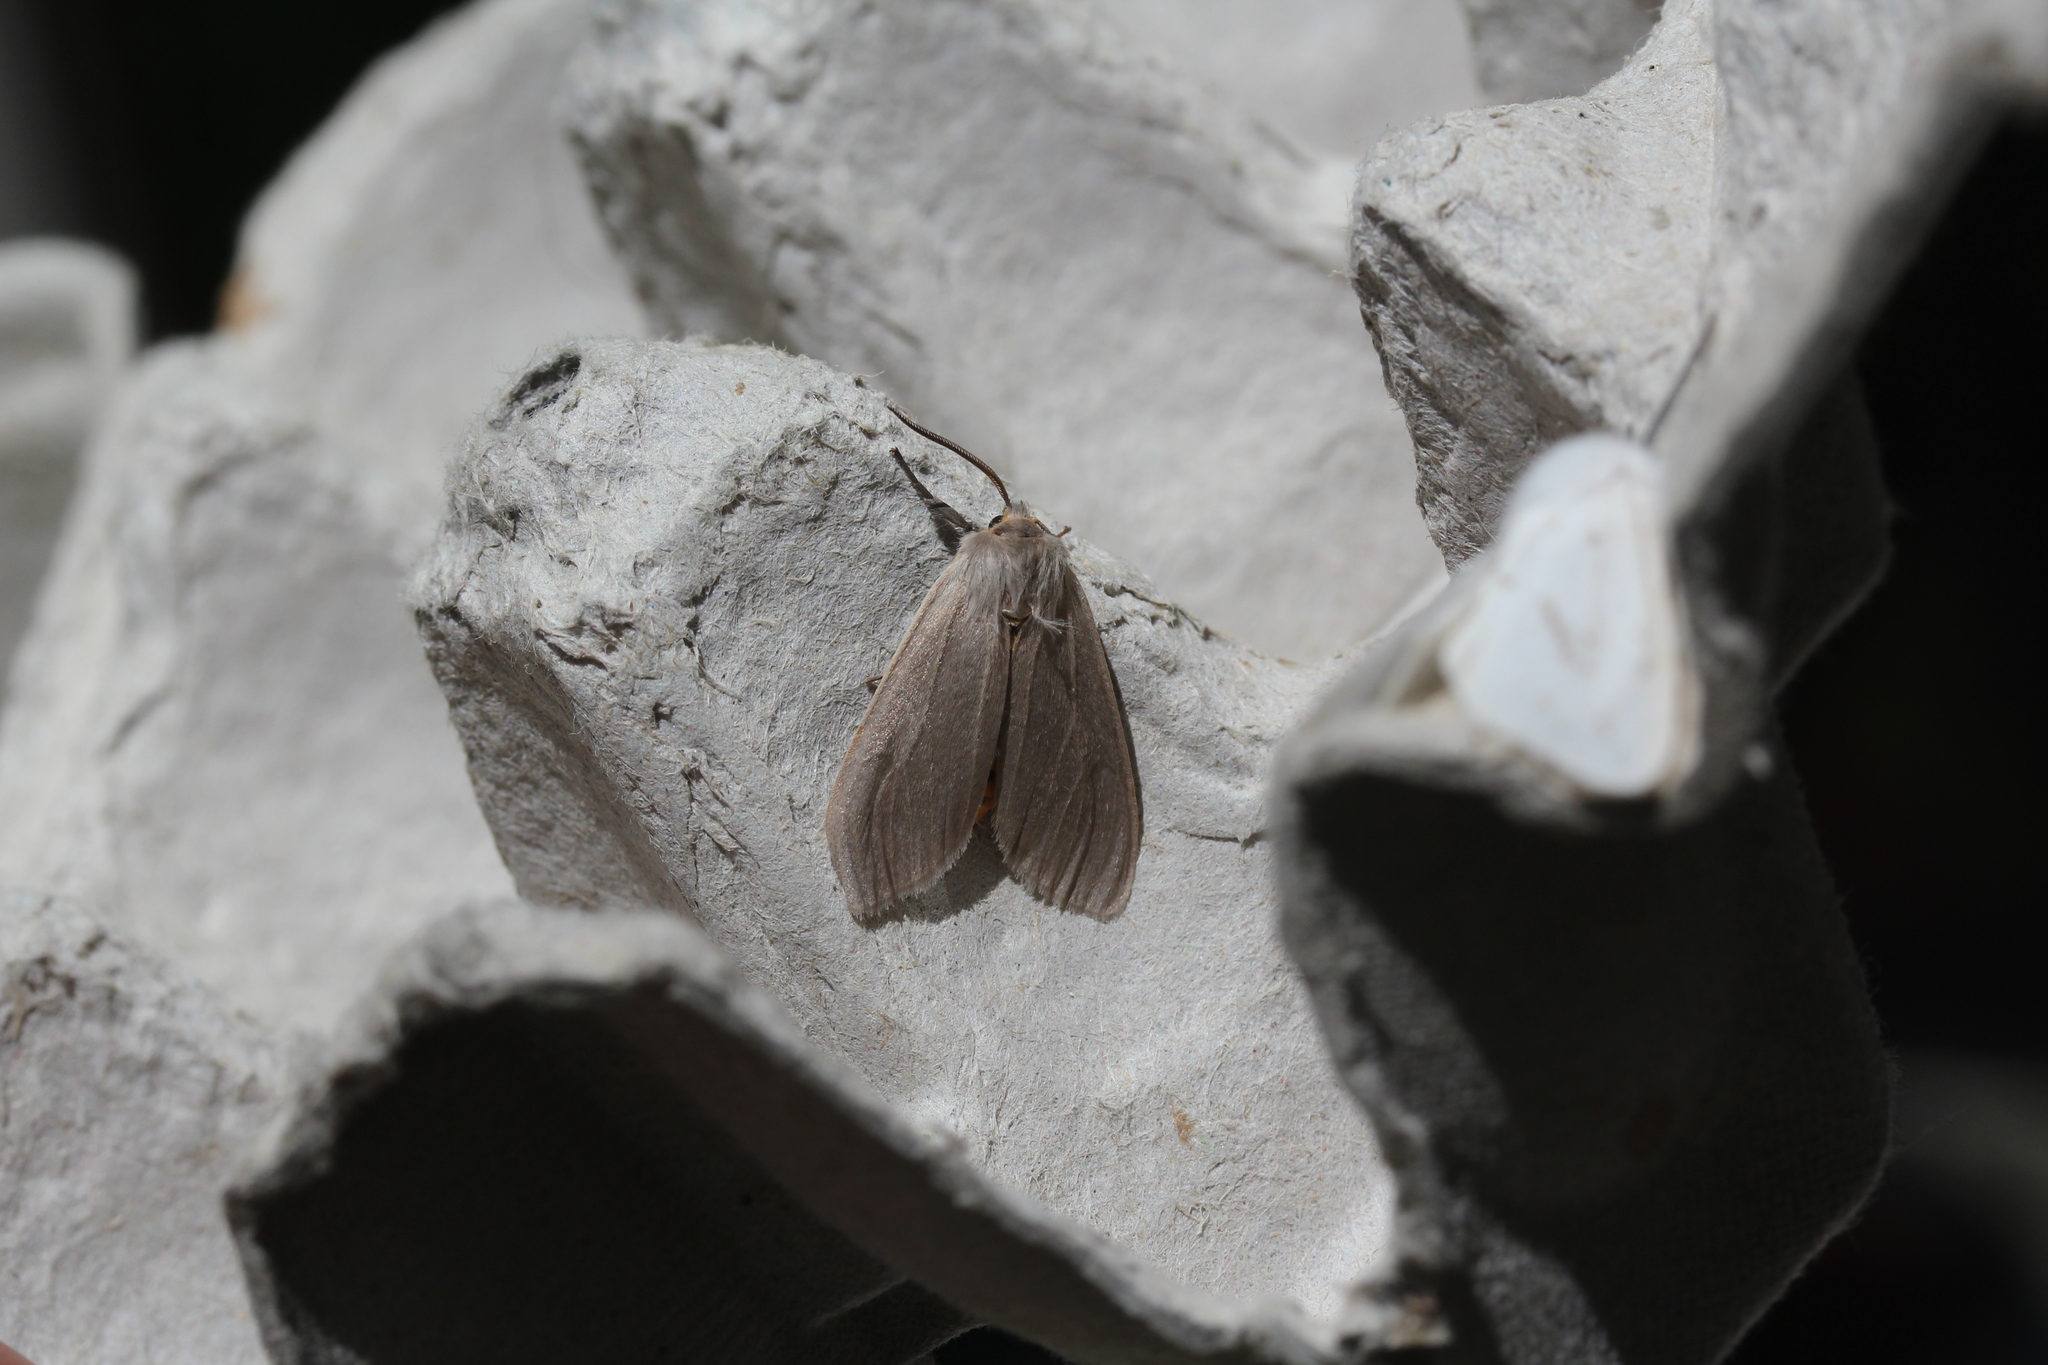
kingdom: Animalia
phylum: Arthropoda
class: Insecta
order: Lepidoptera
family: Erebidae
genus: Euchaetes
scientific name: Euchaetes egle
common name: Milkweed tussock moth
